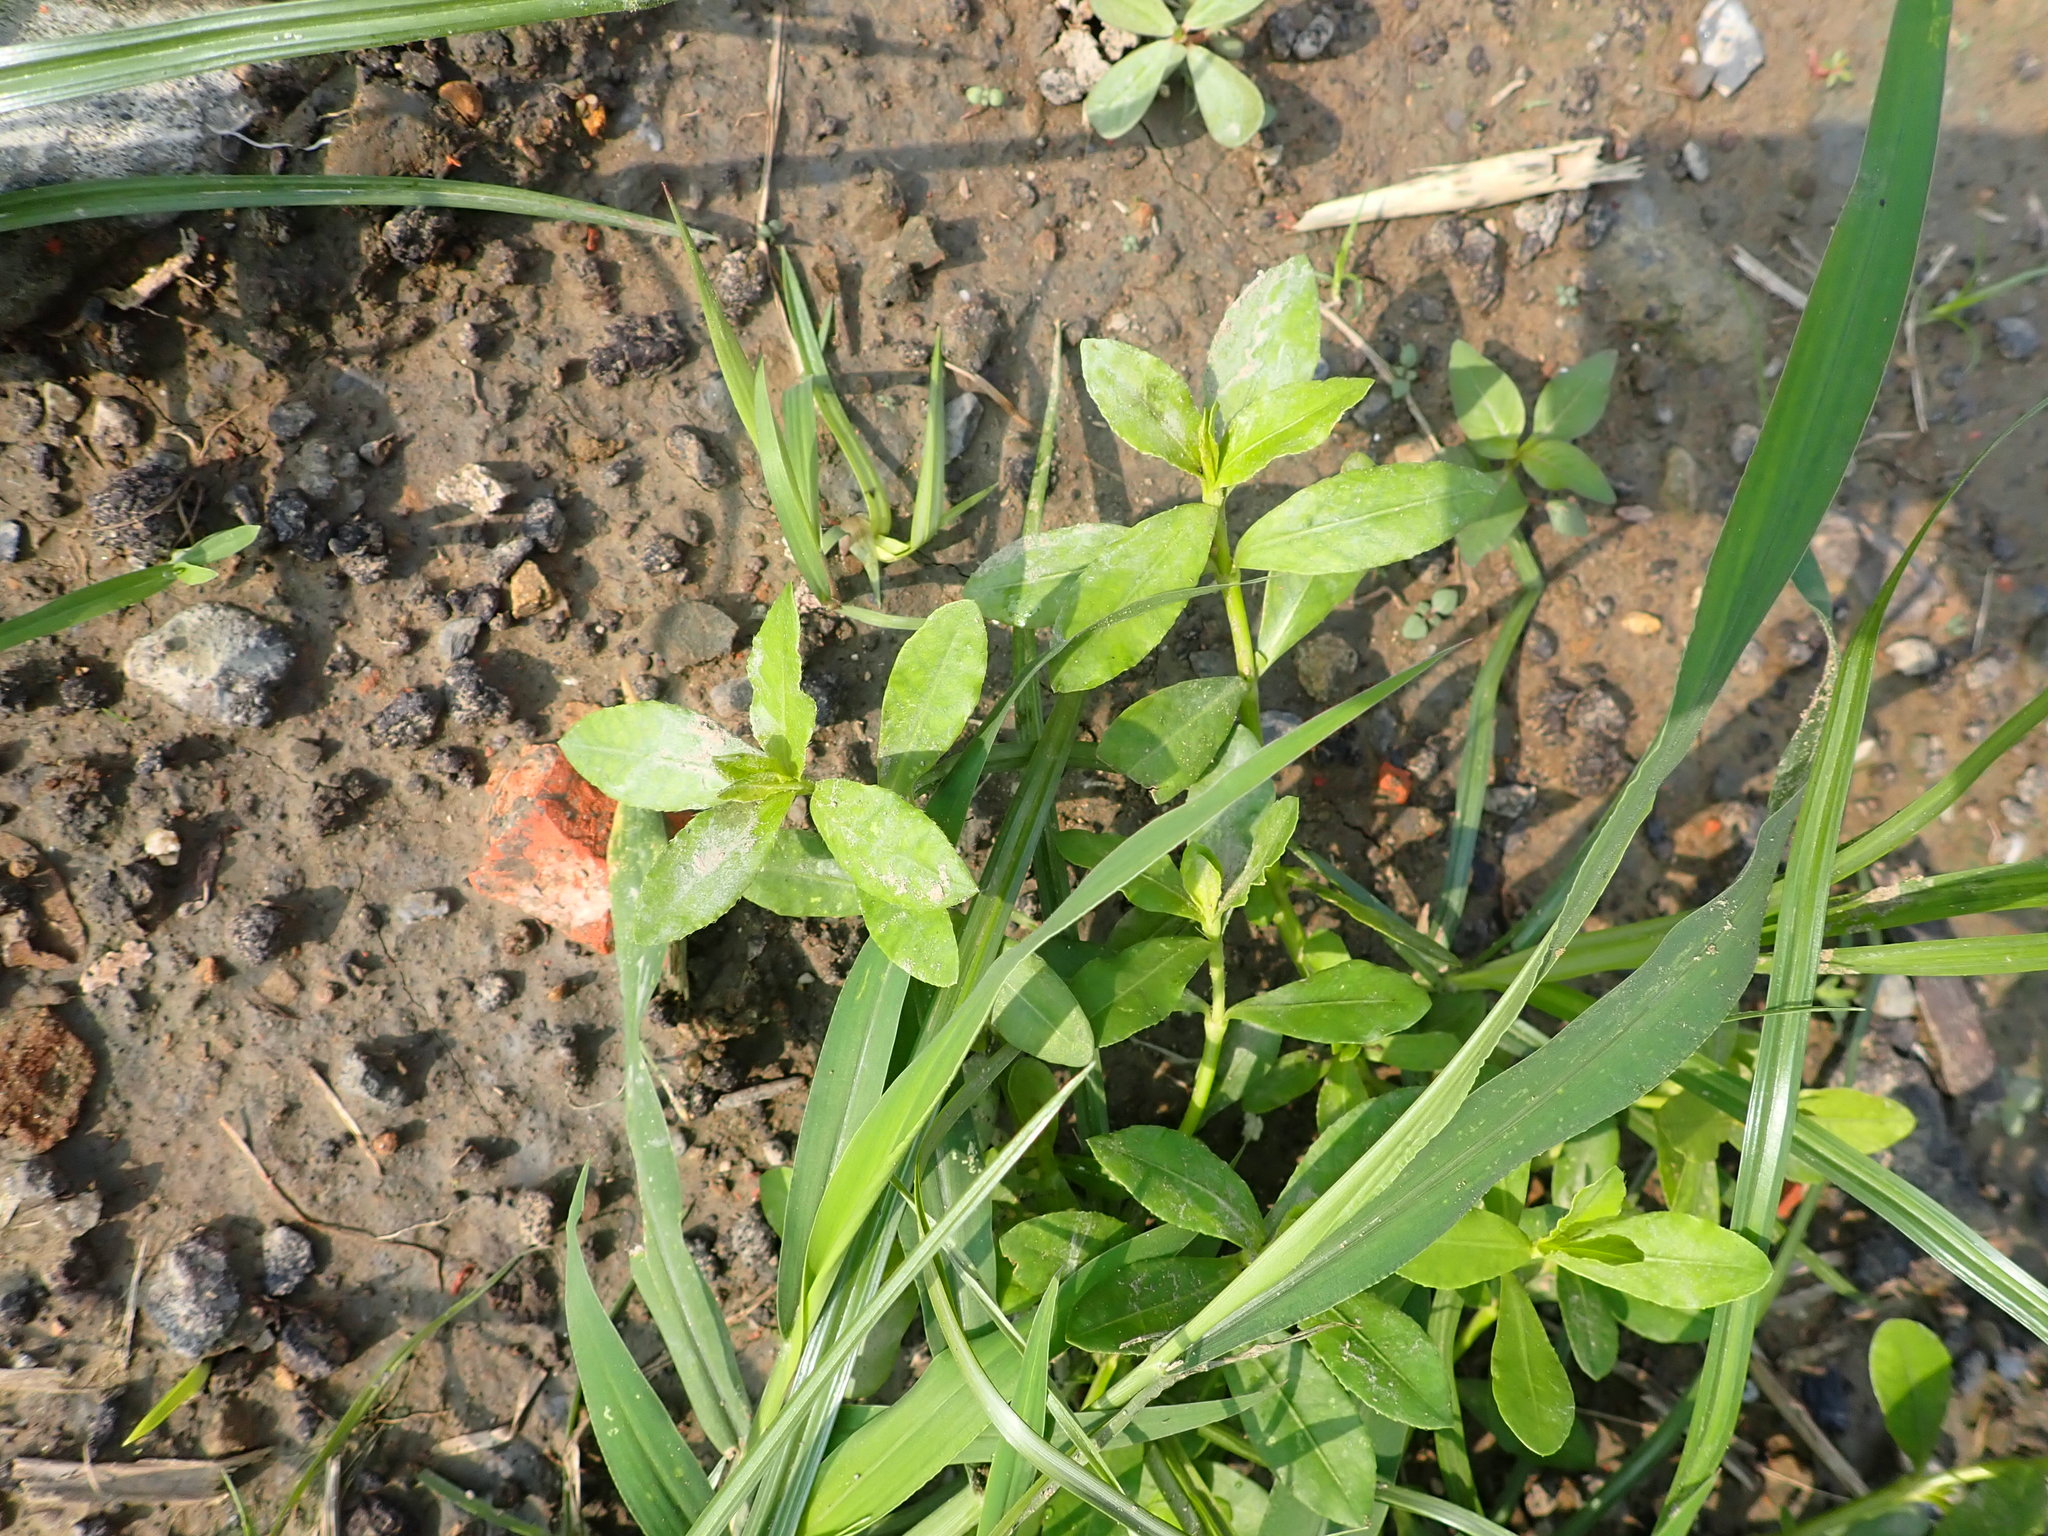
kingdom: Plantae
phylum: Tracheophyta
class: Magnoliopsida
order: Caryophyllales
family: Amaranthaceae
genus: Alternanthera
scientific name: Alternanthera philoxeroides
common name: Alligatorweed
